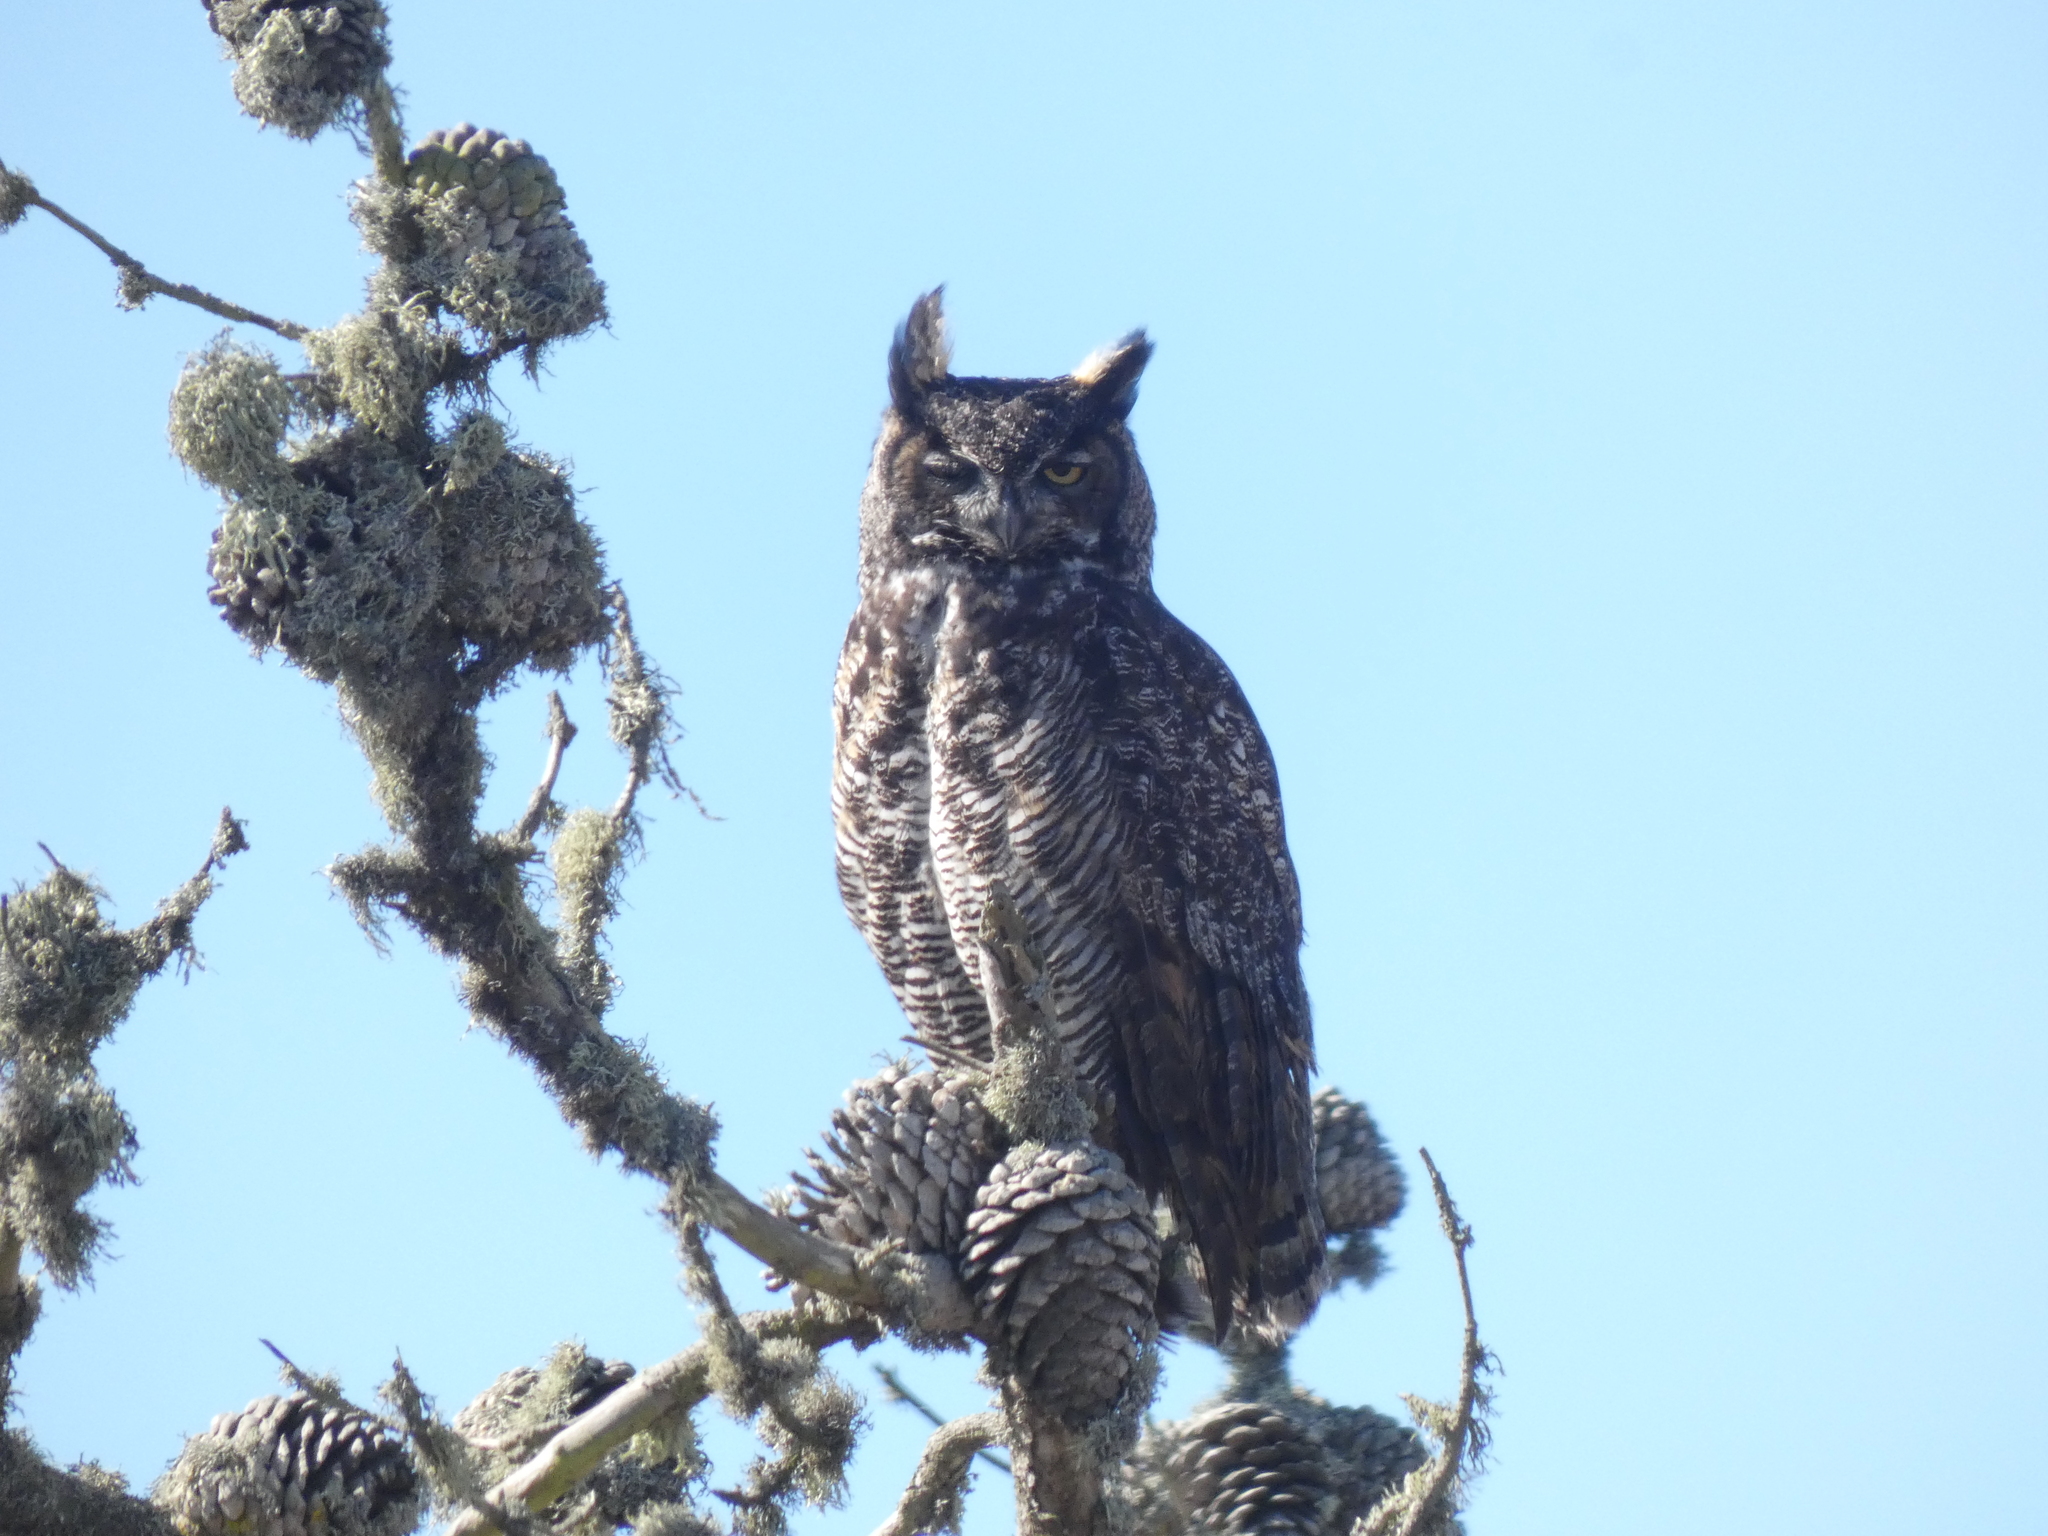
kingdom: Animalia
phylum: Chordata
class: Aves
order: Strigiformes
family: Strigidae
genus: Bubo
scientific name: Bubo virginianus
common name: Great horned owl
